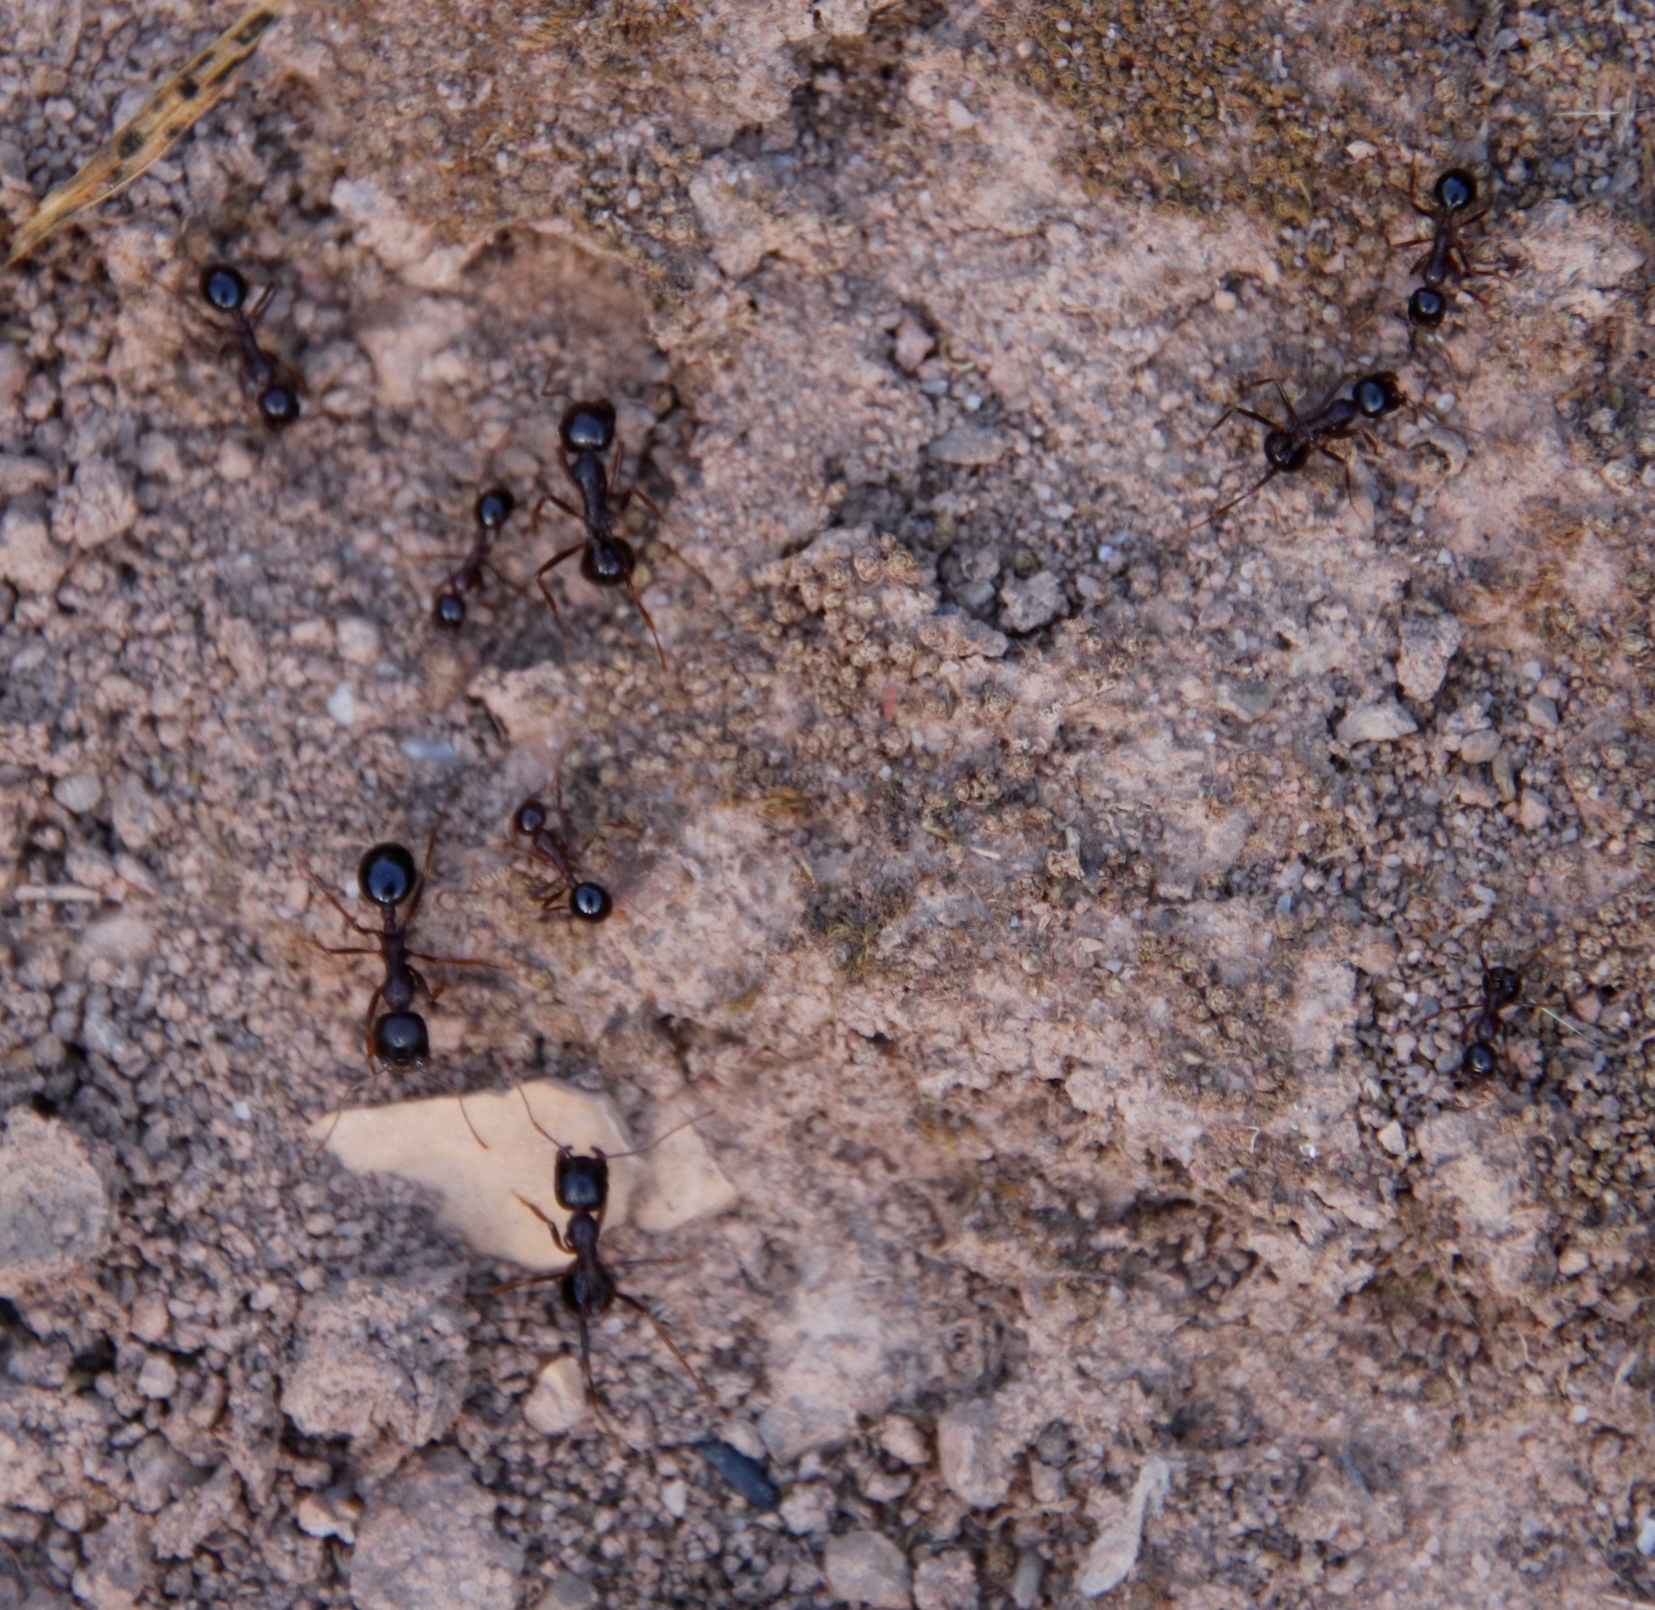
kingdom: Animalia
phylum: Arthropoda
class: Insecta
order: Hymenoptera
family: Formicidae
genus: Messor
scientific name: Messor striatifrons
